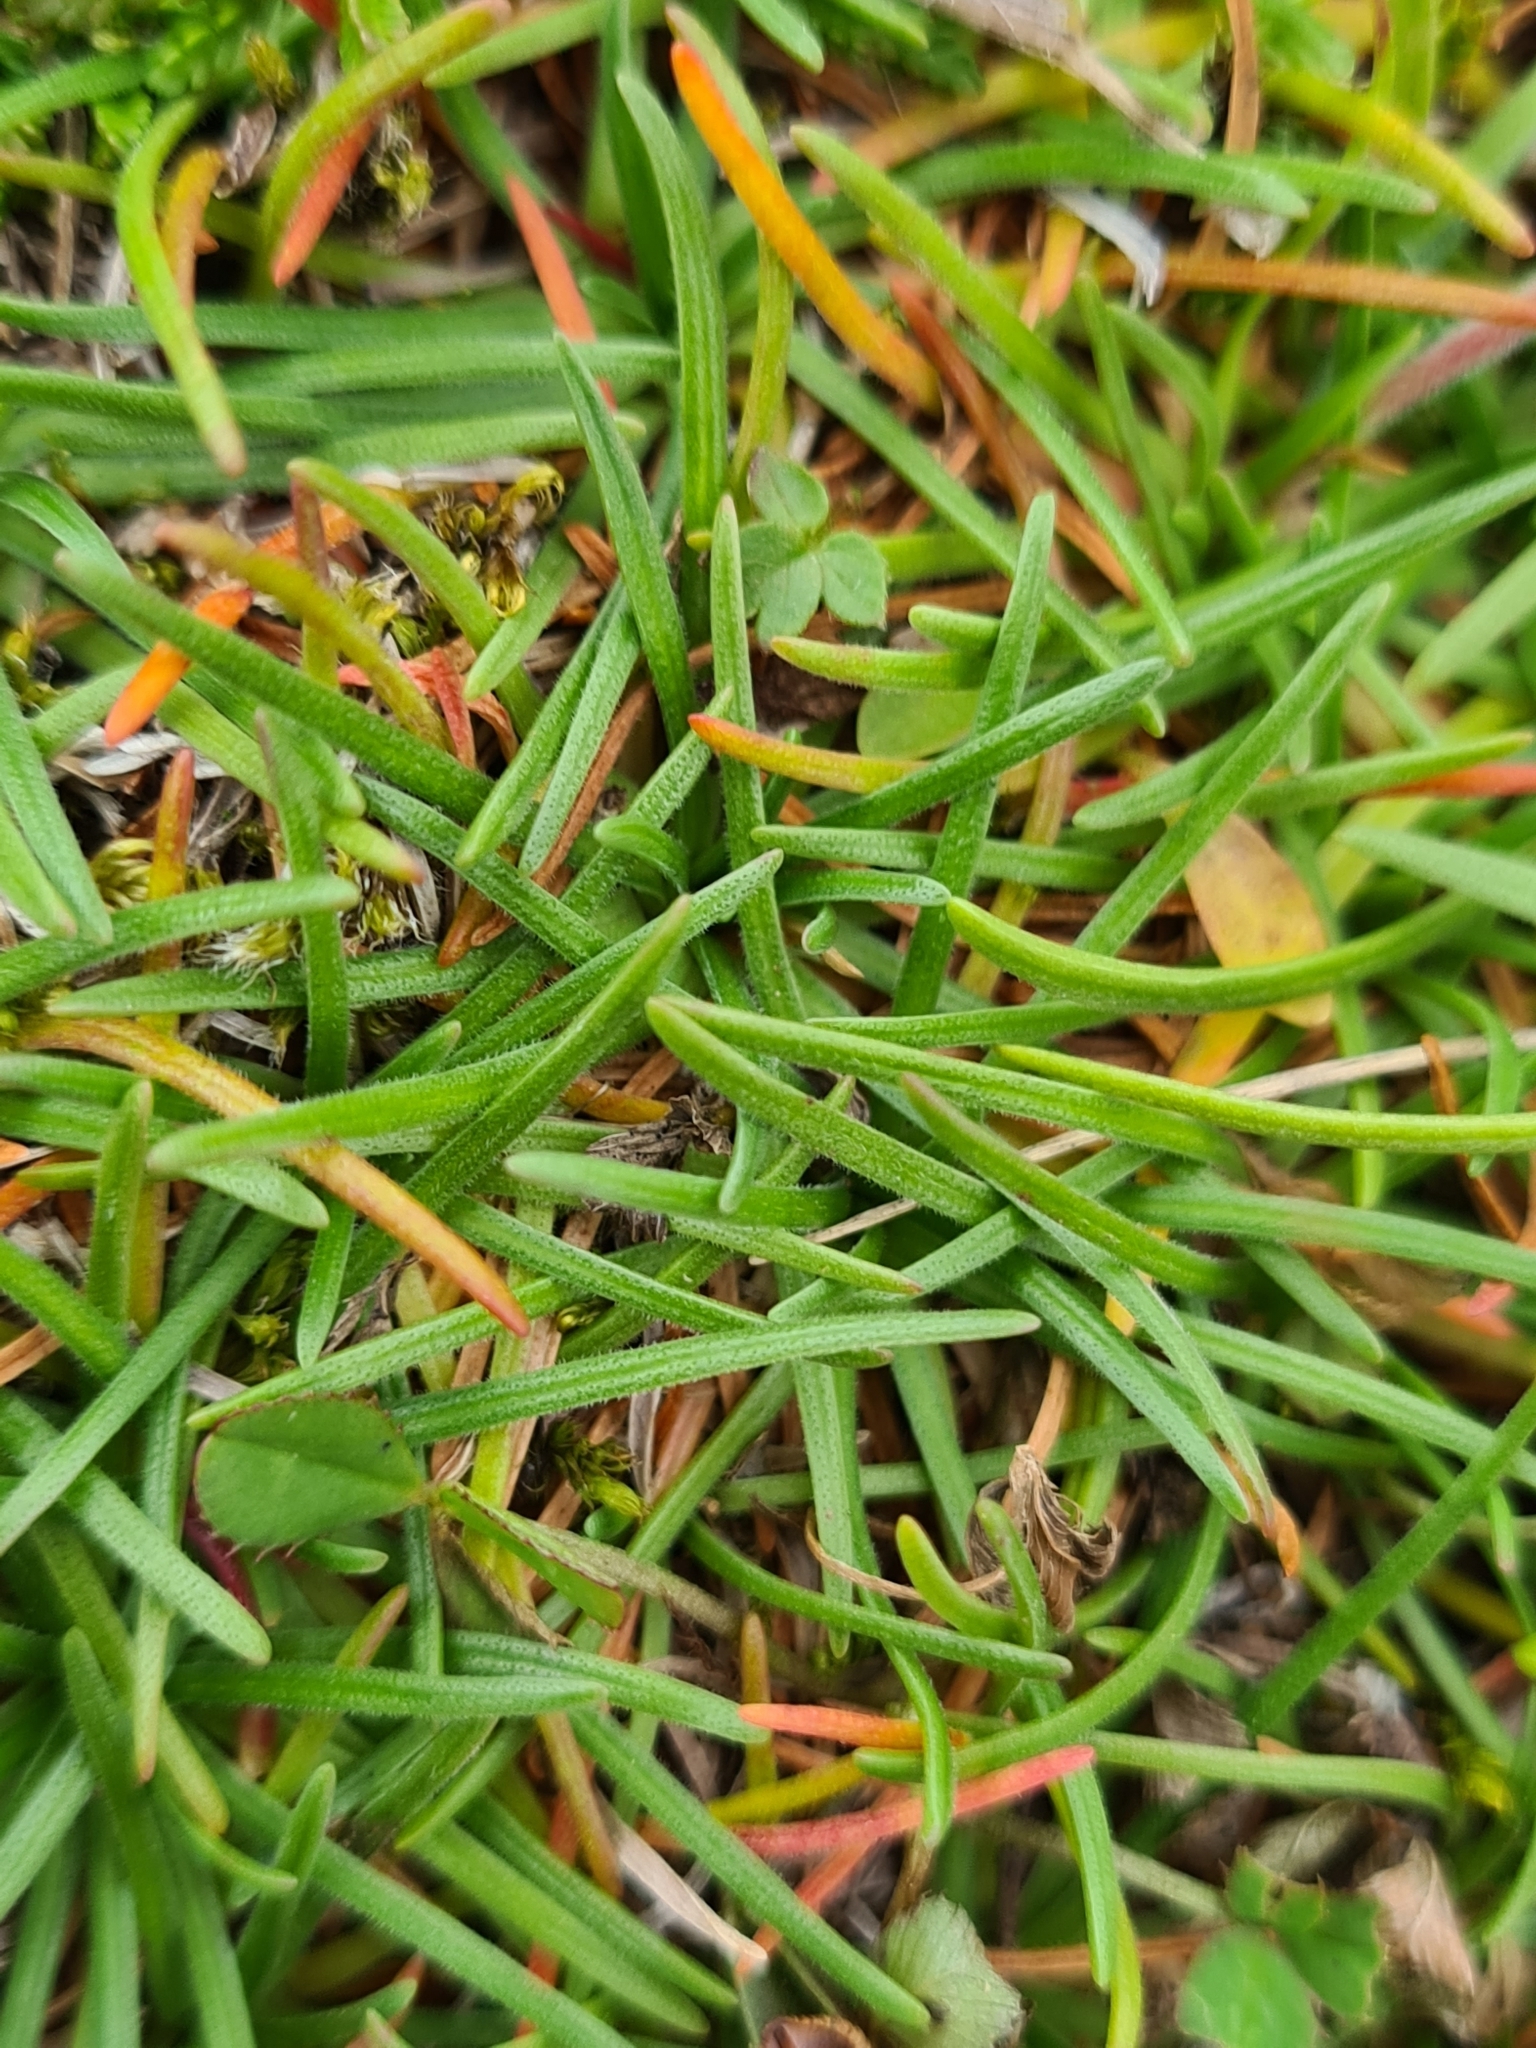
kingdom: Plantae
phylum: Tracheophyta
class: Magnoliopsida
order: Caryophyllales
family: Plumbaginaceae
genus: Armeria
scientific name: Armeria maritima
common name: Thrift
